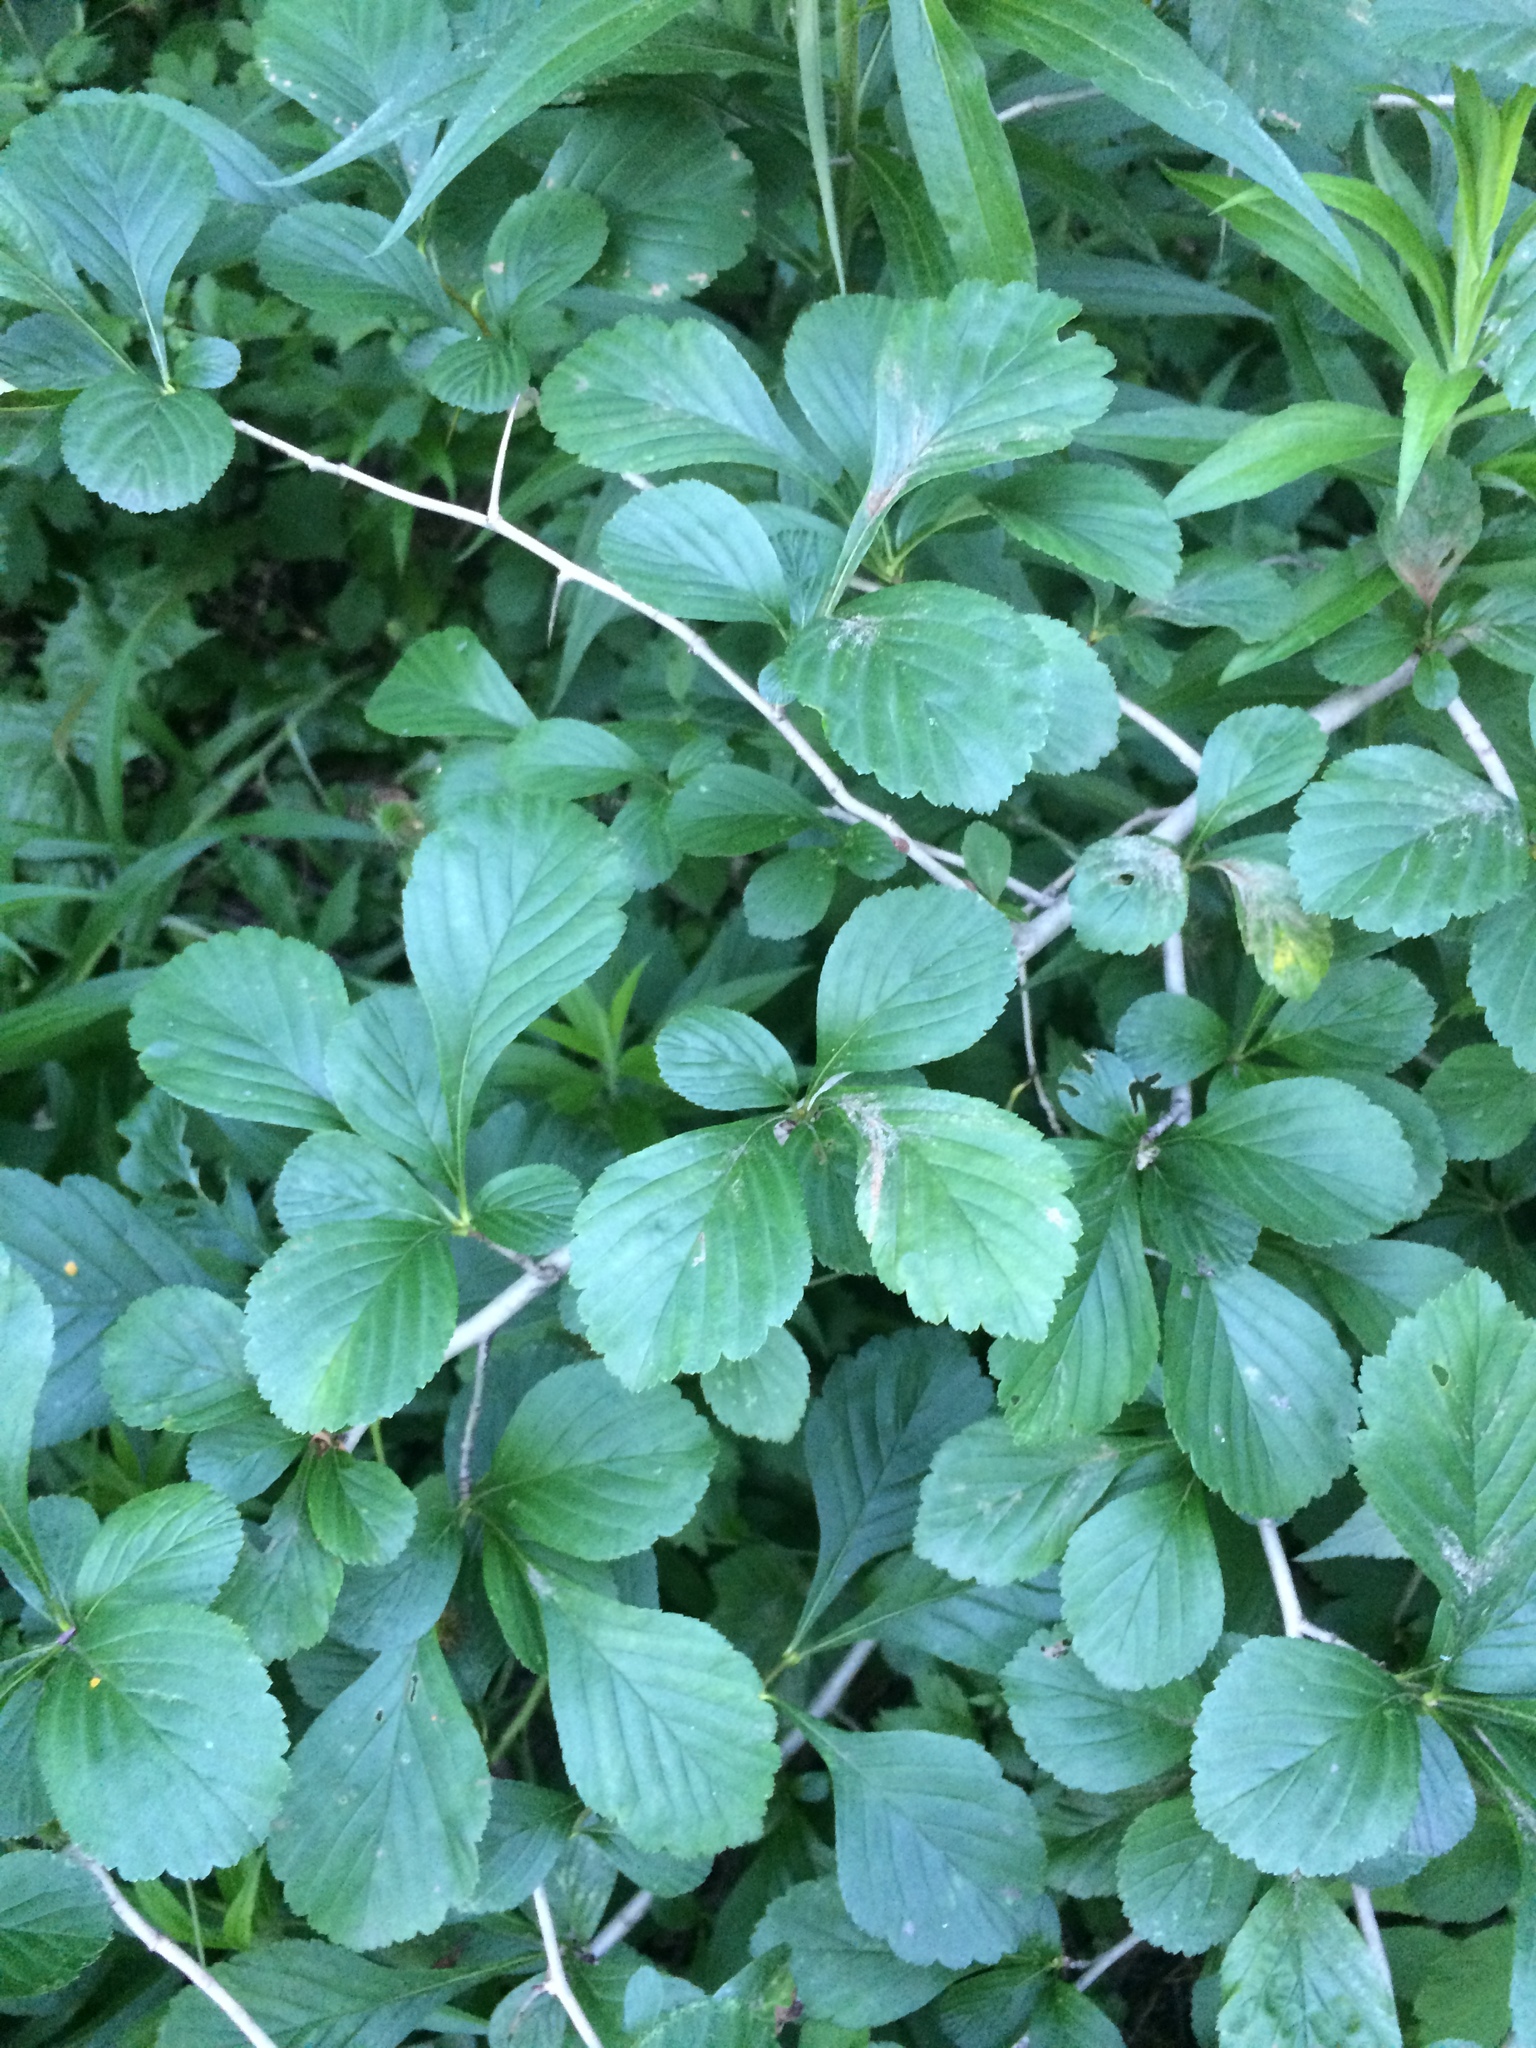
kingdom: Plantae
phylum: Tracheophyta
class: Magnoliopsida
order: Rosales
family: Rosaceae
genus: Crataegus
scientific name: Crataegus punctata
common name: Dotted hawthorn
